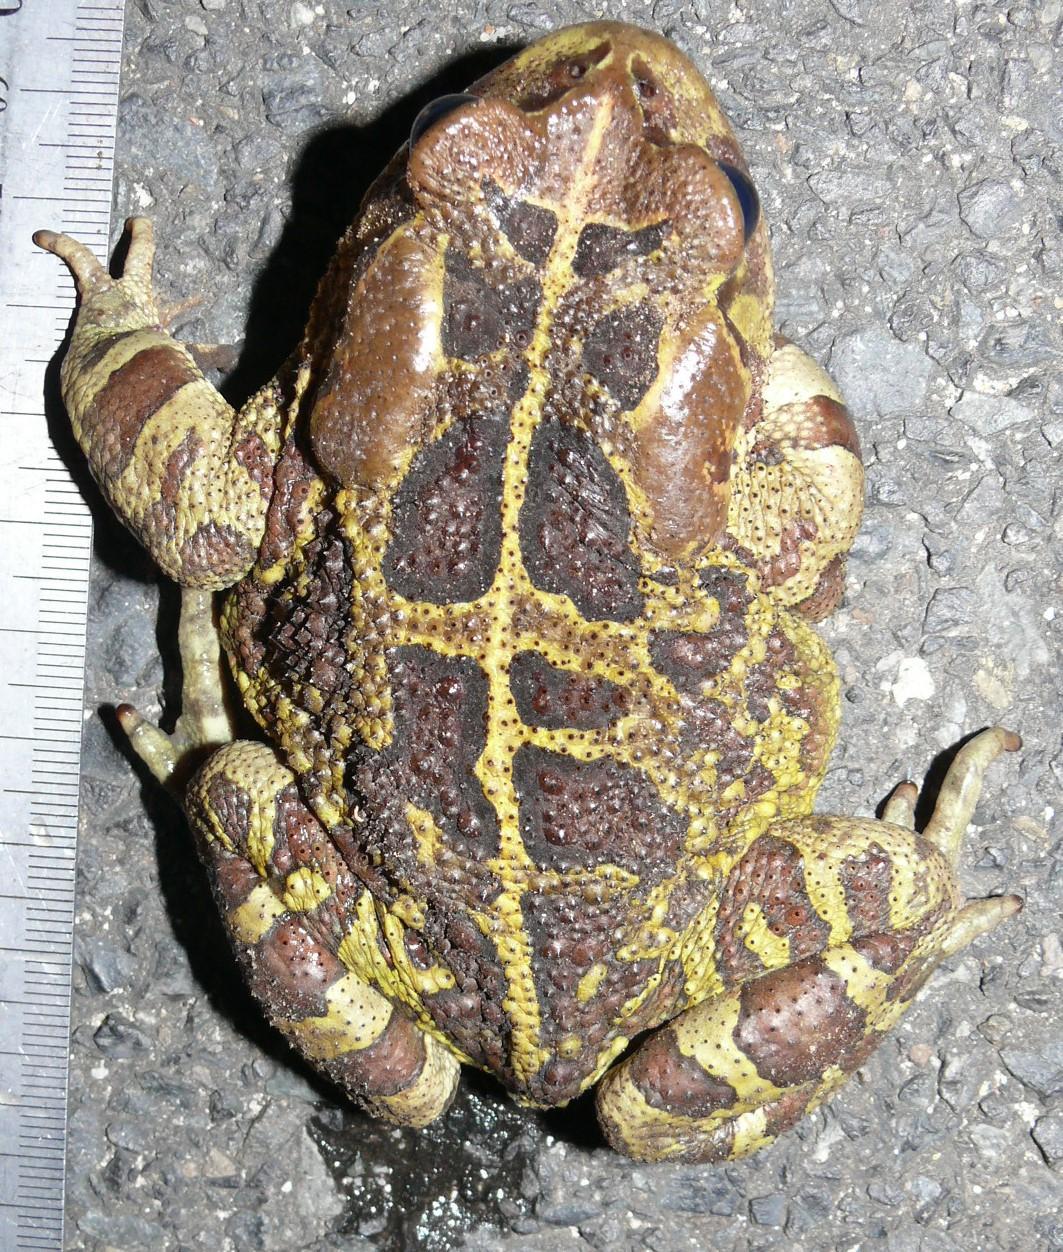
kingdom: Animalia
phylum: Chordata
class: Amphibia
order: Anura
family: Bufonidae
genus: Sclerophrys
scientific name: Sclerophrys pantherina
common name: Panther toad
